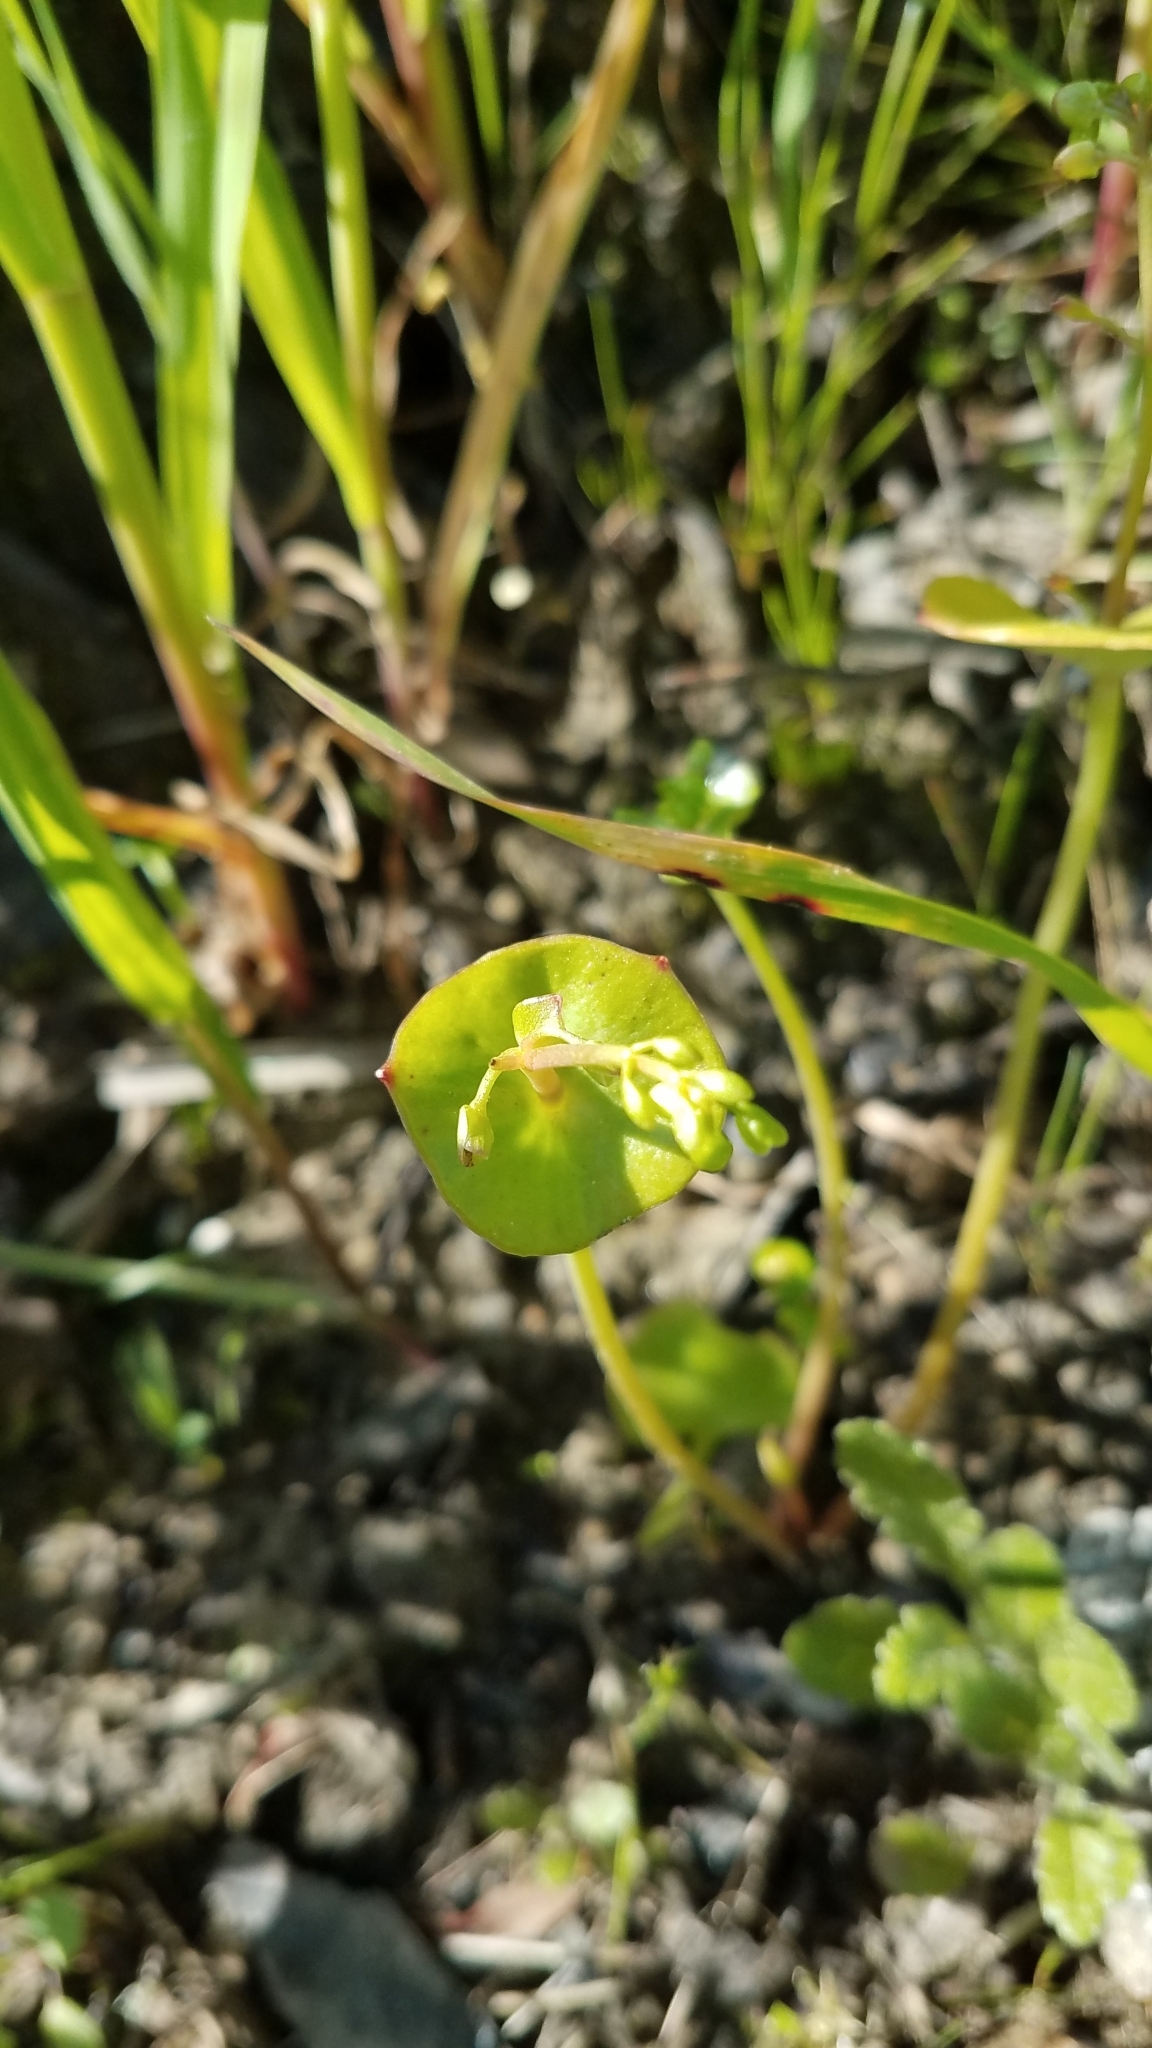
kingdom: Plantae
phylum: Tracheophyta
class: Magnoliopsida
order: Caryophyllales
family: Montiaceae
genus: Claytonia
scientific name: Claytonia perfoliata
